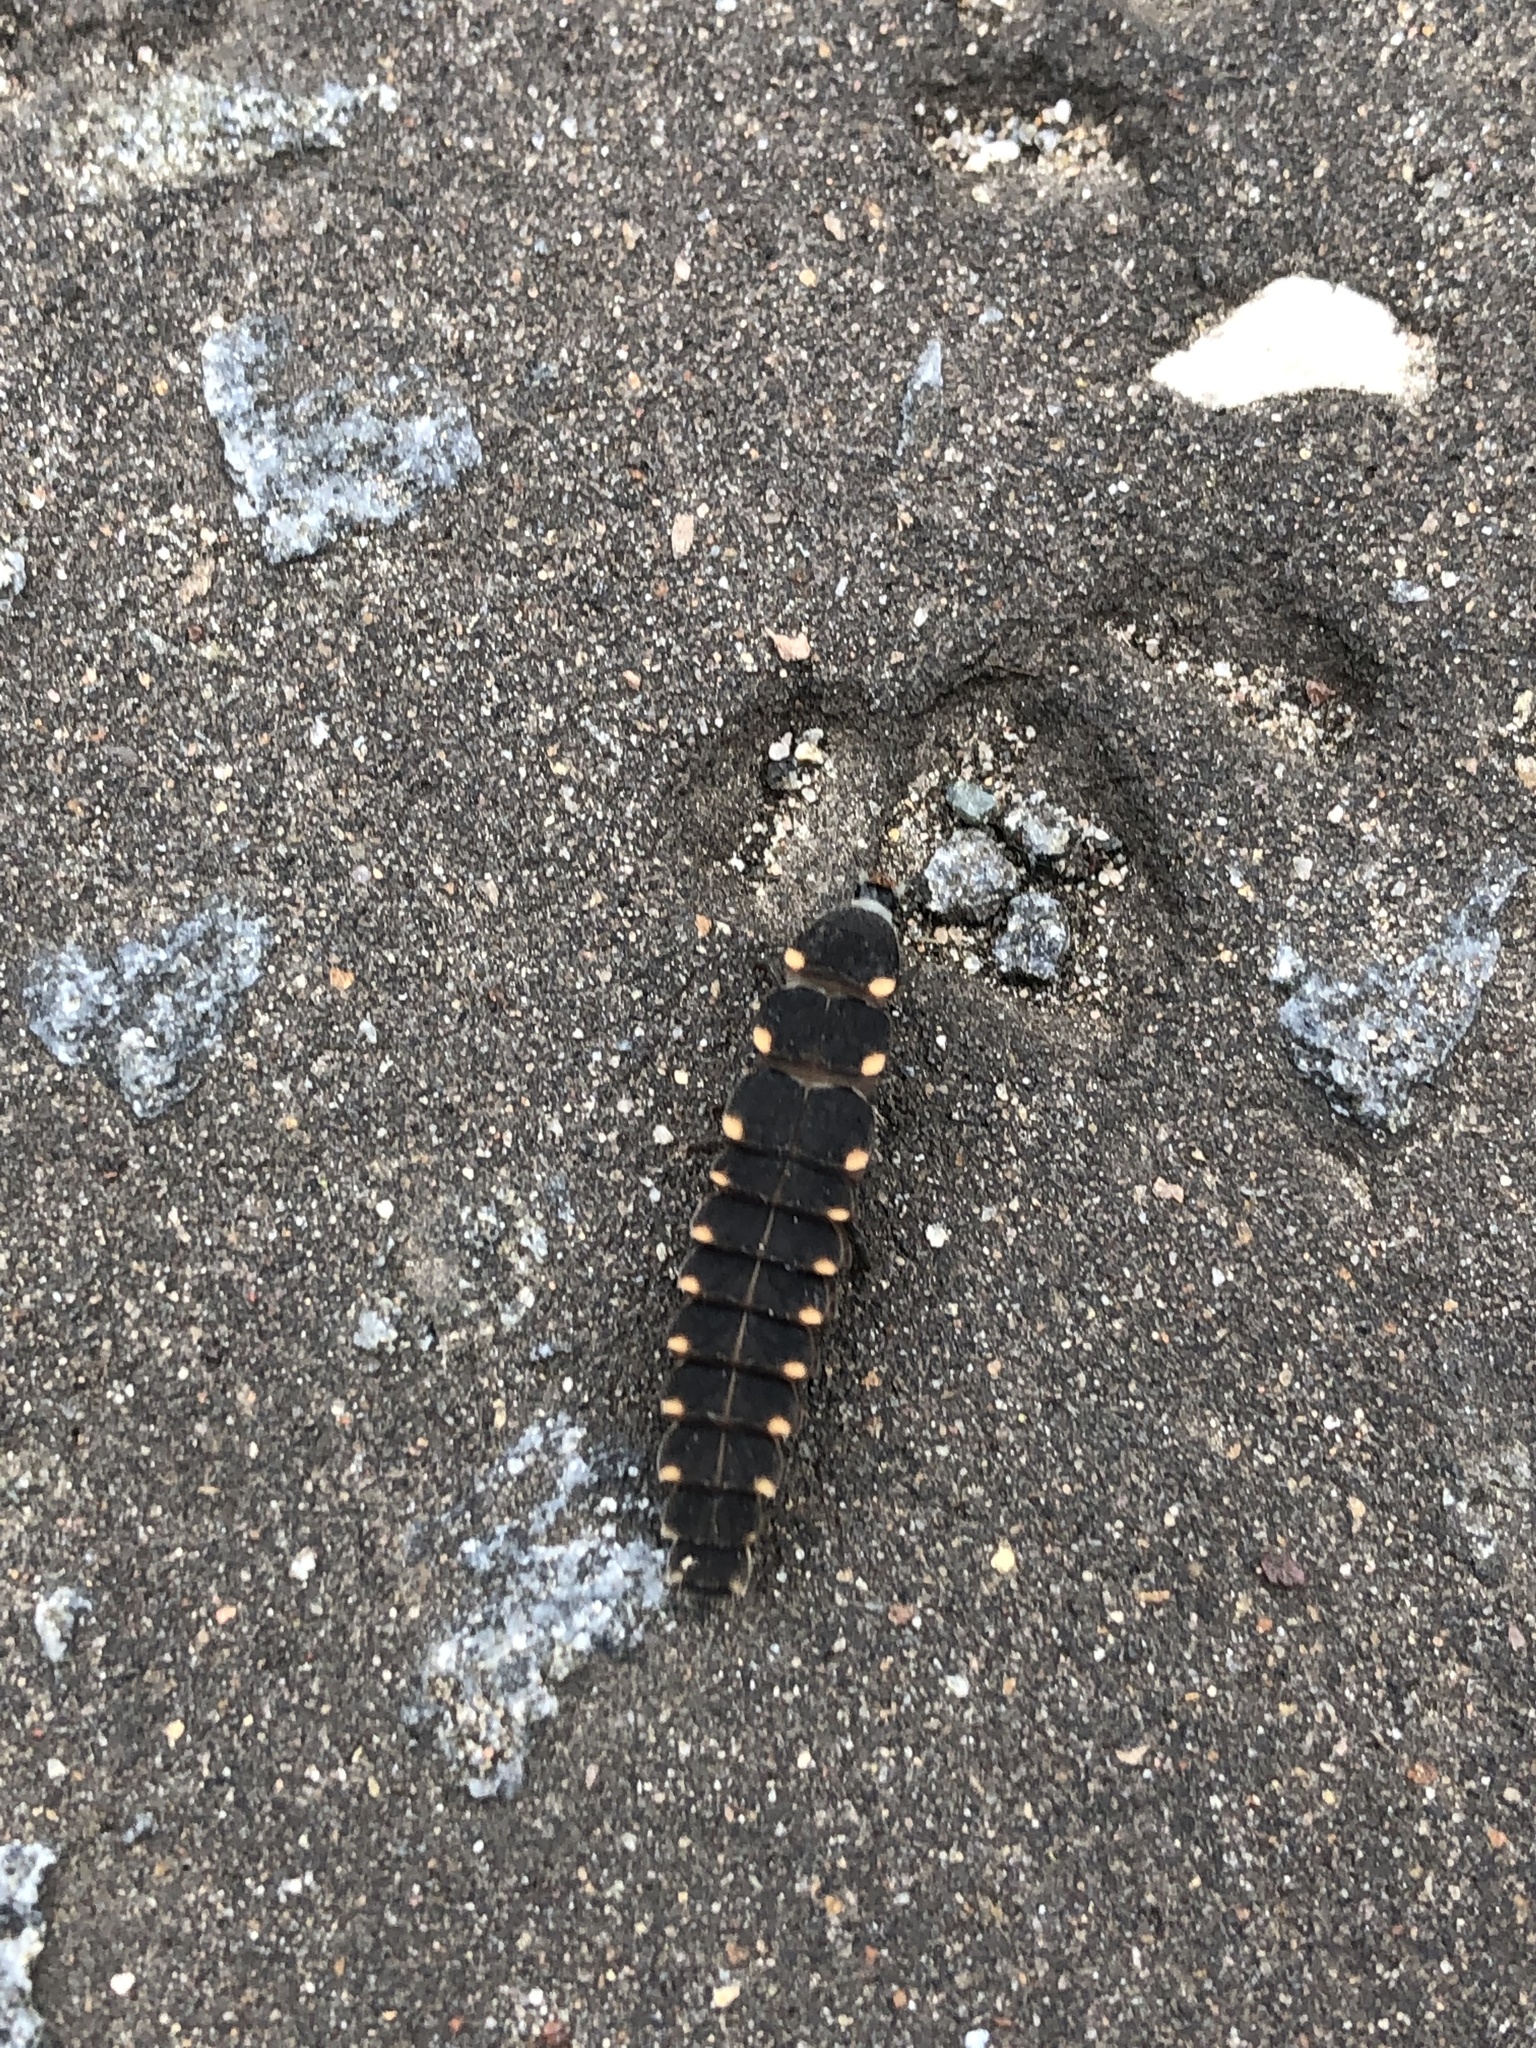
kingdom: Animalia
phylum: Arthropoda
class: Insecta
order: Coleoptera
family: Lampyridae
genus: Lampyris
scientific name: Lampyris noctiluca
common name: Glow-worm
